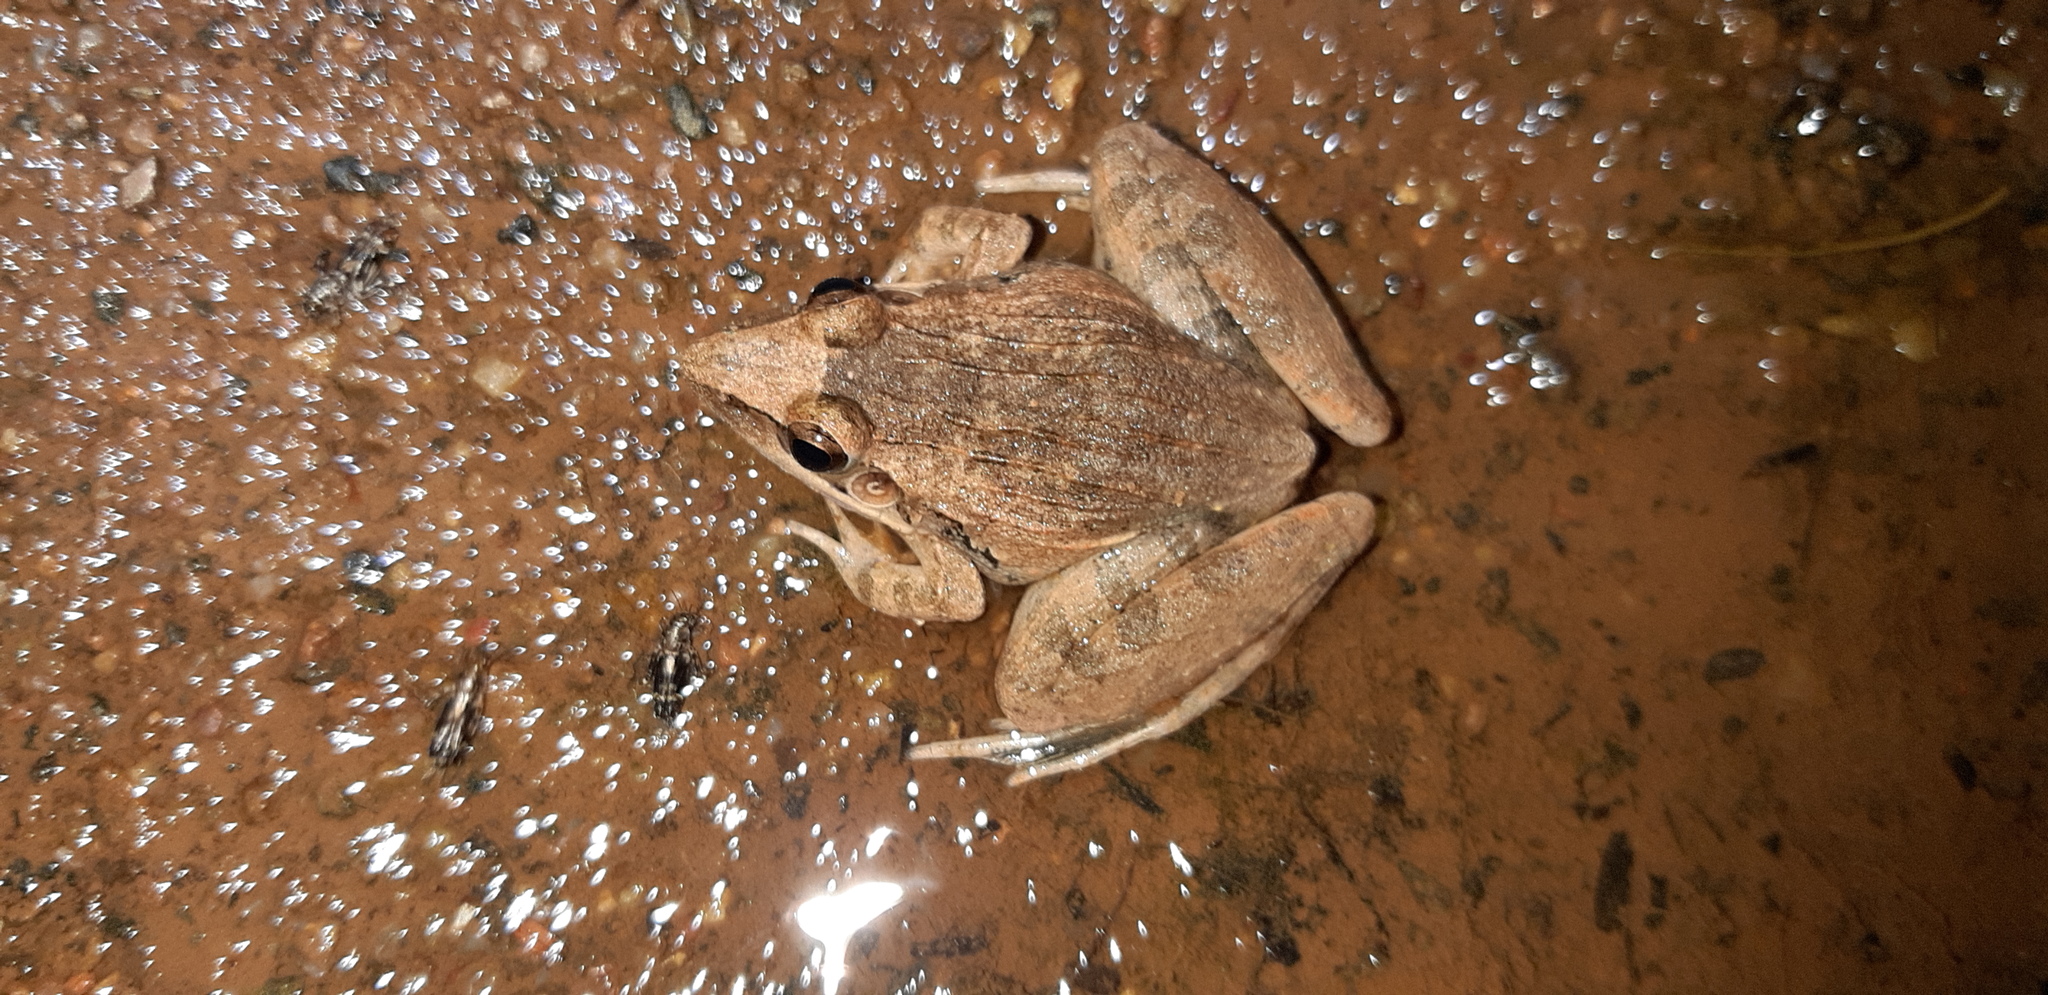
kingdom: Animalia
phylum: Chordata
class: Amphibia
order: Anura
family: Ptychadenidae
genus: Ptychadena
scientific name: Ptychadena anchietae
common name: Anchieta's ridged frog
